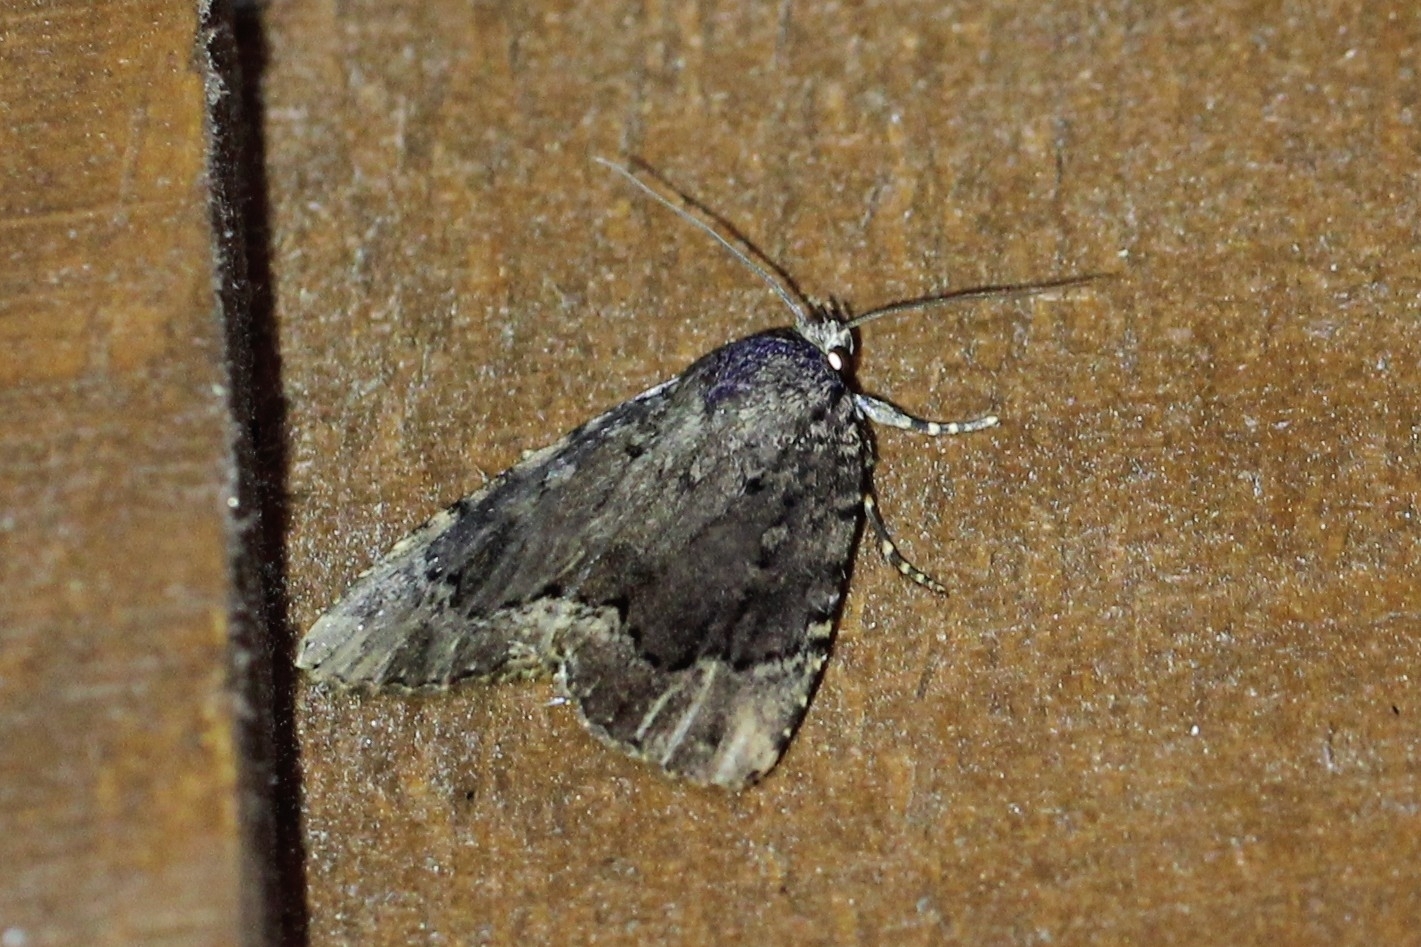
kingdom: Animalia
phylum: Arthropoda
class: Insecta
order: Lepidoptera
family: Noctuidae
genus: Amphipyra
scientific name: Amphipyra pyramidoides
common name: American copper underwing
